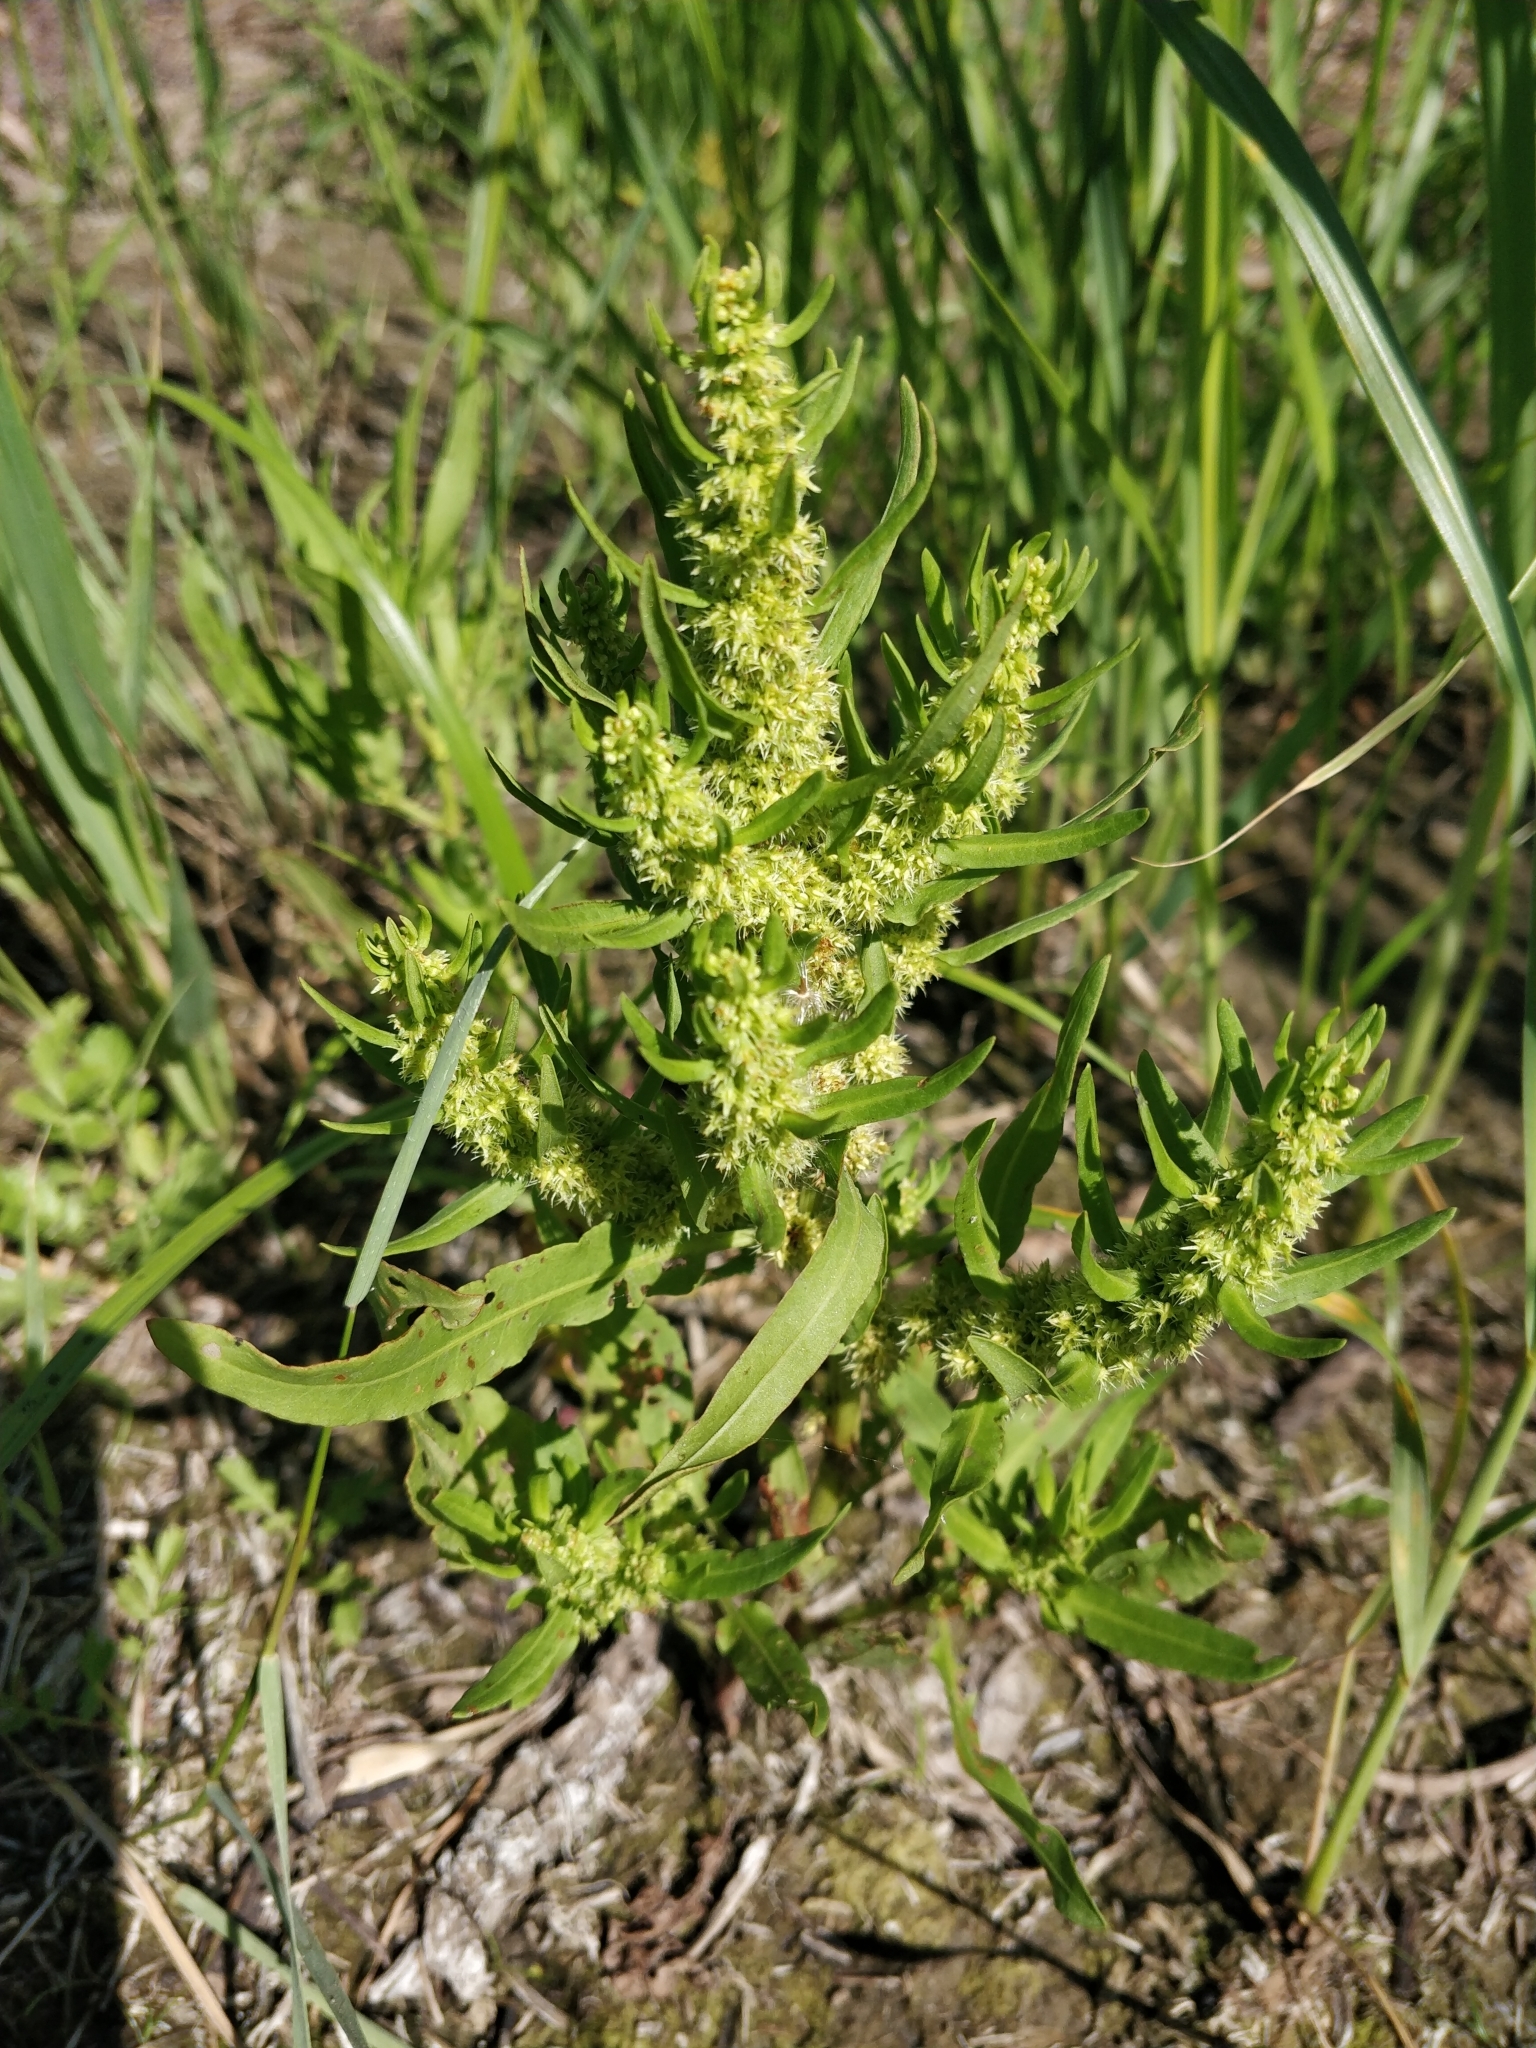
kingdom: Plantae
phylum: Tracheophyta
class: Magnoliopsida
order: Caryophyllales
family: Polygonaceae
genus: Rumex
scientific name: Rumex maritimus
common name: Golden dock
